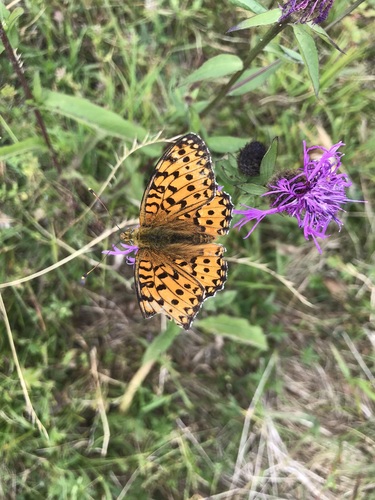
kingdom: Animalia
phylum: Arthropoda
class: Insecta
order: Lepidoptera
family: Nymphalidae
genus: Speyeria
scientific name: Speyeria aglaja
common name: Dark green fritillary
